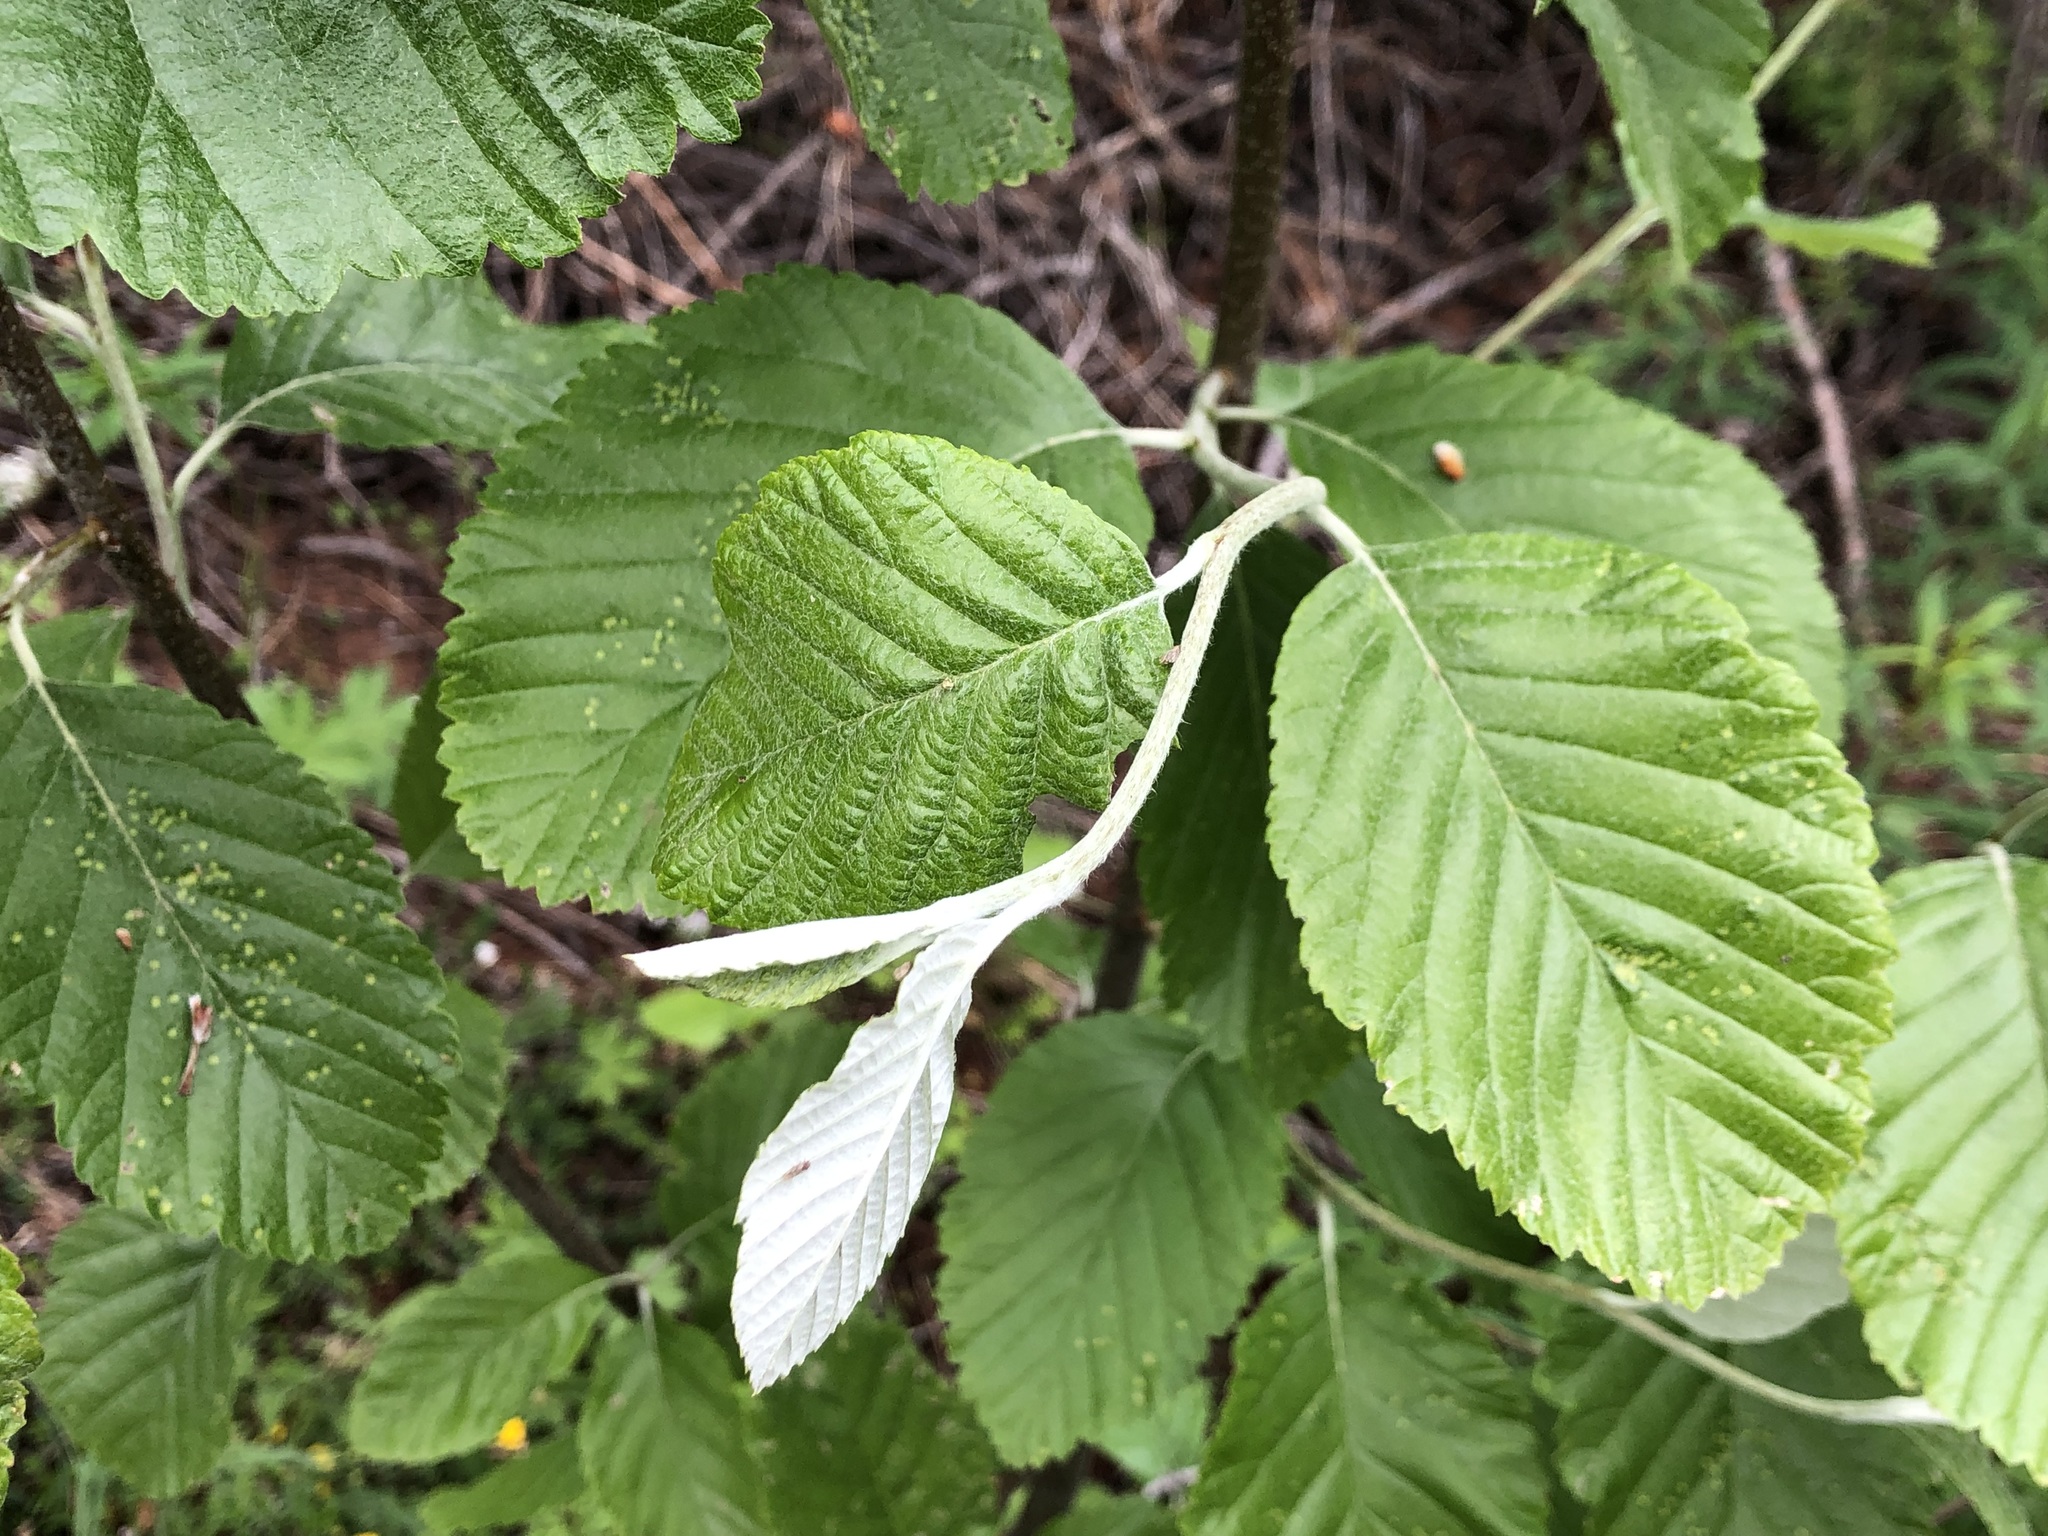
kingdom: Plantae
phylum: Tracheophyta
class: Magnoliopsida
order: Rosales
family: Rosaceae
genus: Aria
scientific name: Aria edulis
